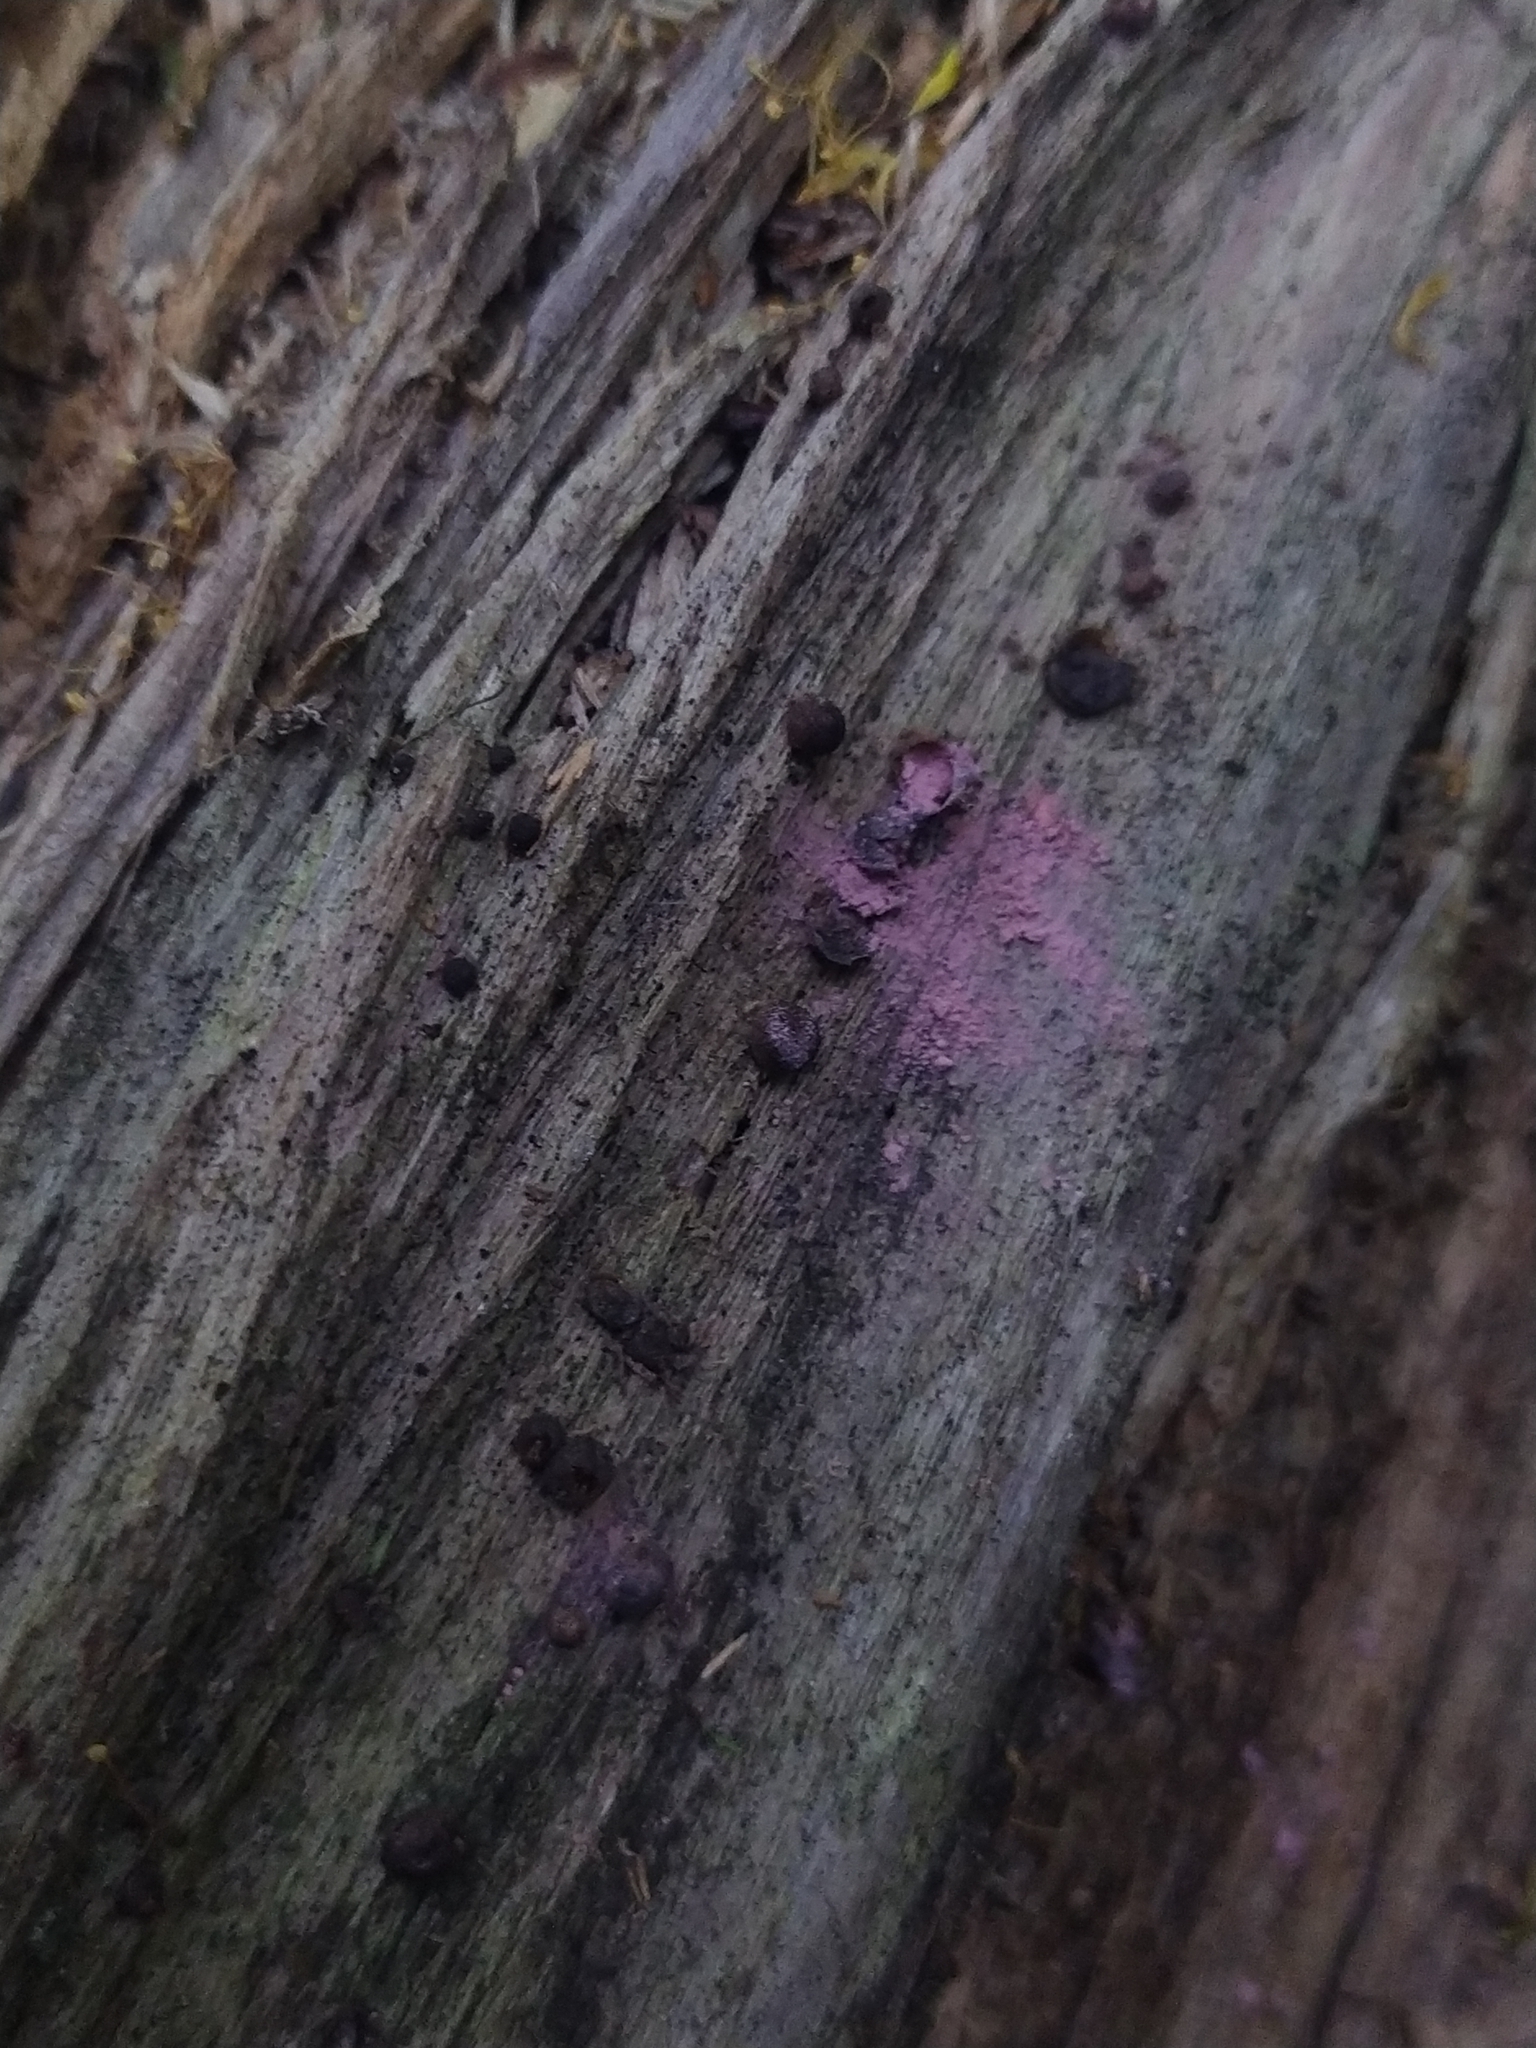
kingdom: Protozoa
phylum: Mycetozoa
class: Myxomycetes
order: Cribrariales
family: Tubiferaceae
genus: Lycogala
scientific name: Lycogala
